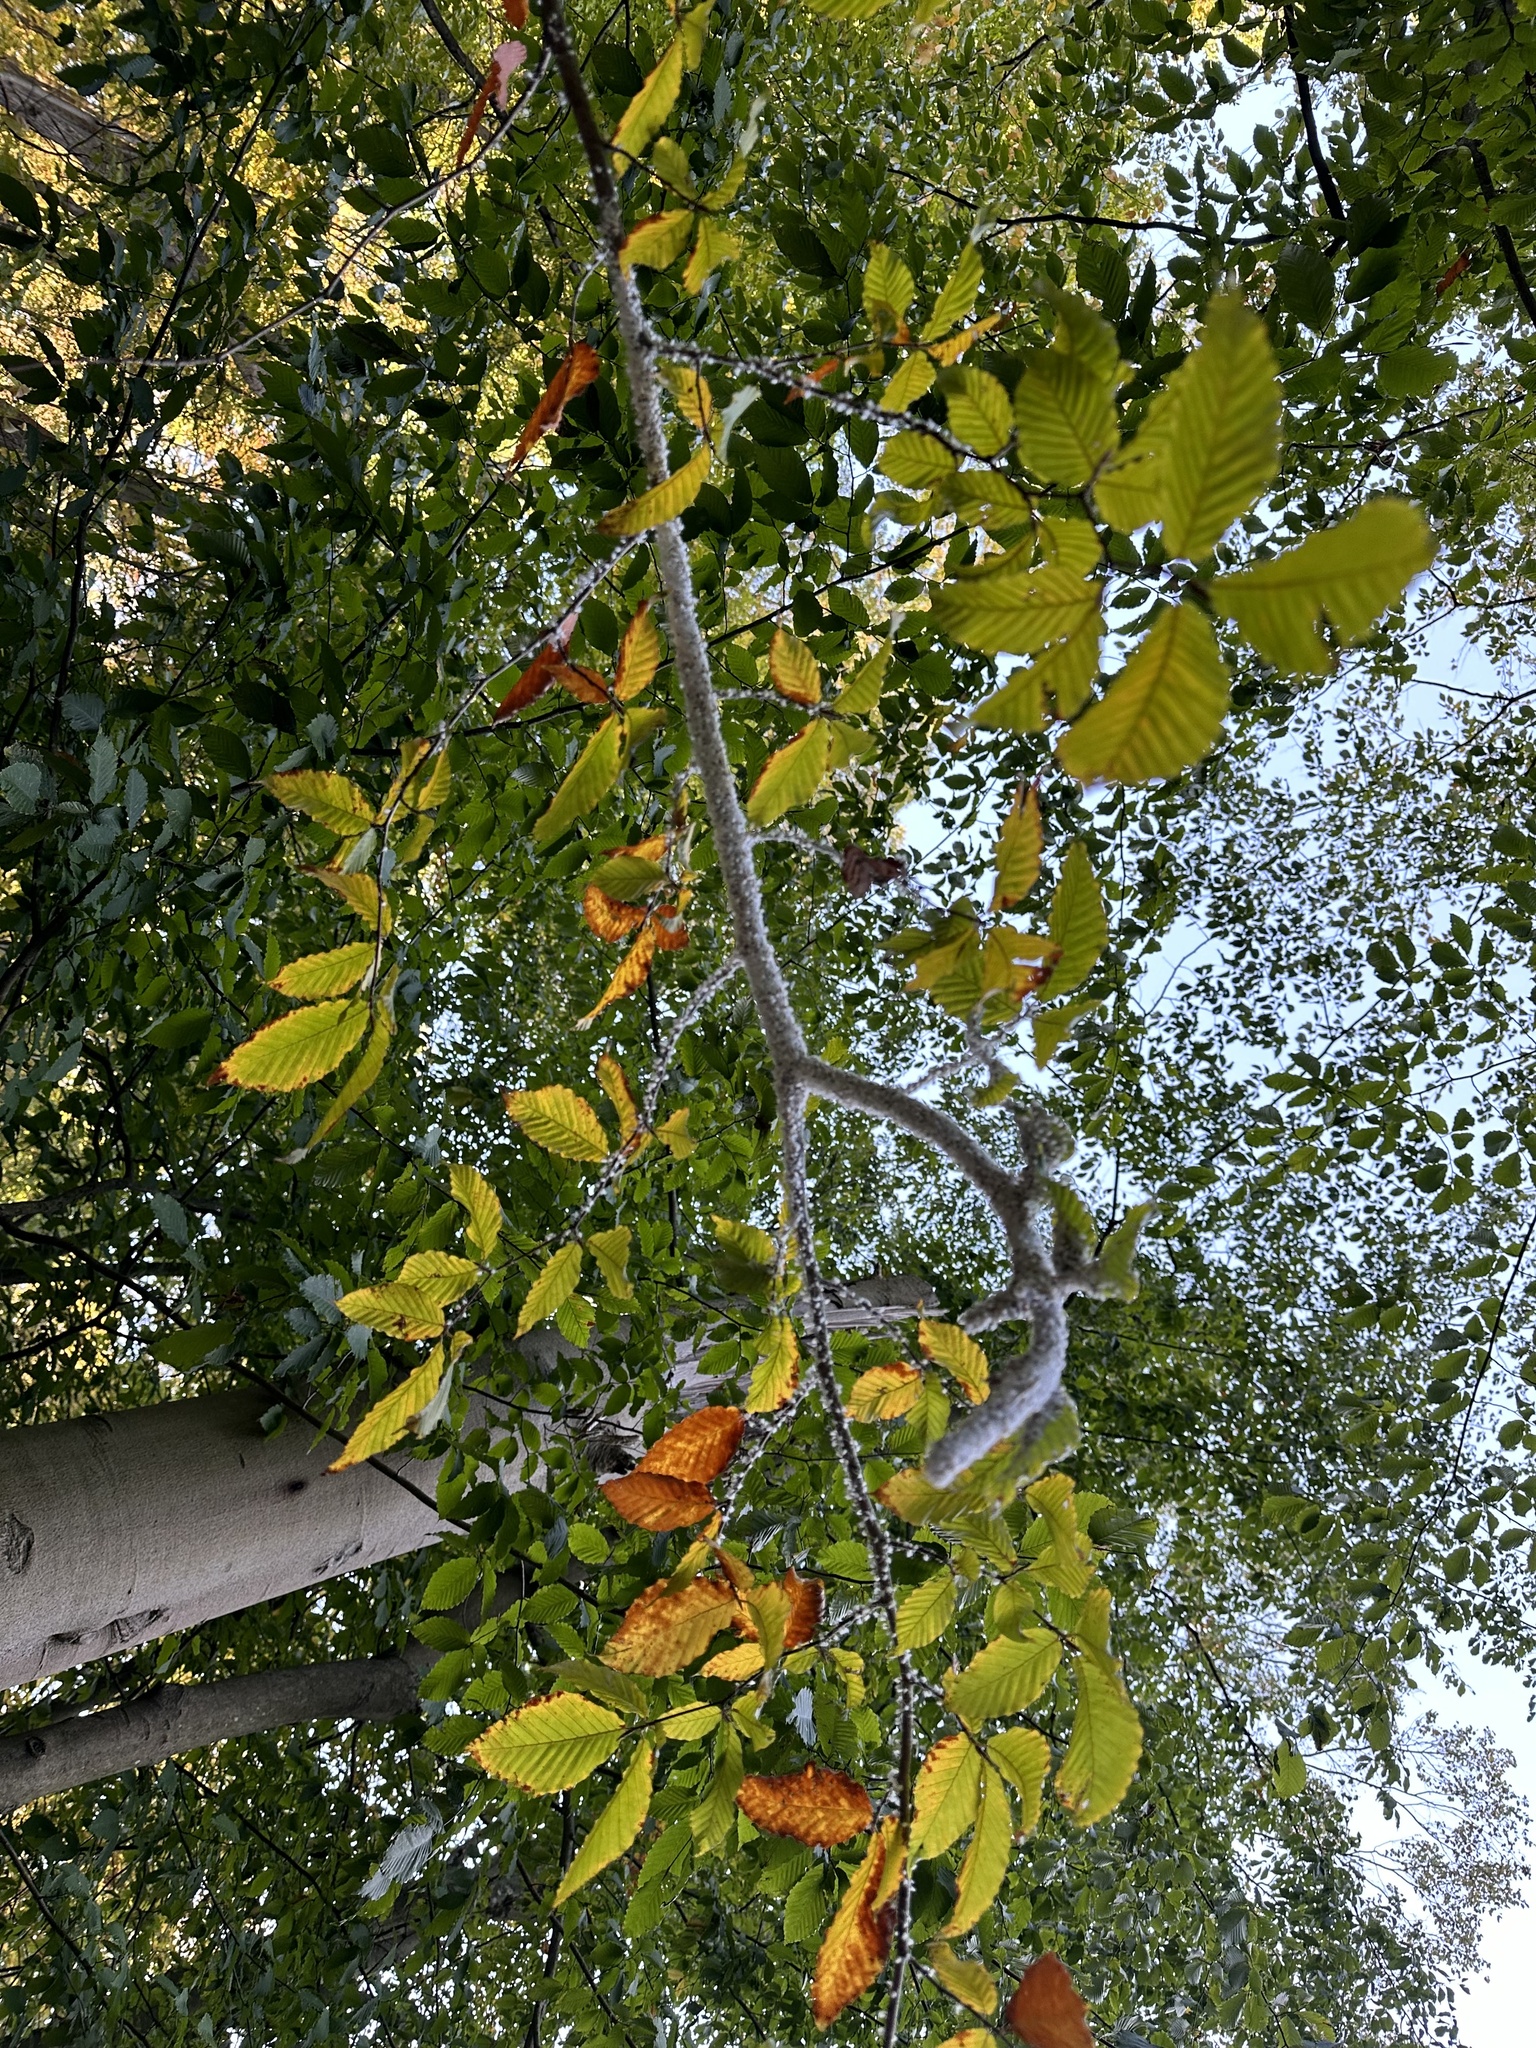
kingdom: Animalia
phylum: Arthropoda
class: Insecta
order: Hemiptera
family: Aphididae
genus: Grylloprociphilus
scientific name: Grylloprociphilus imbricator
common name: Beech blight aphid
